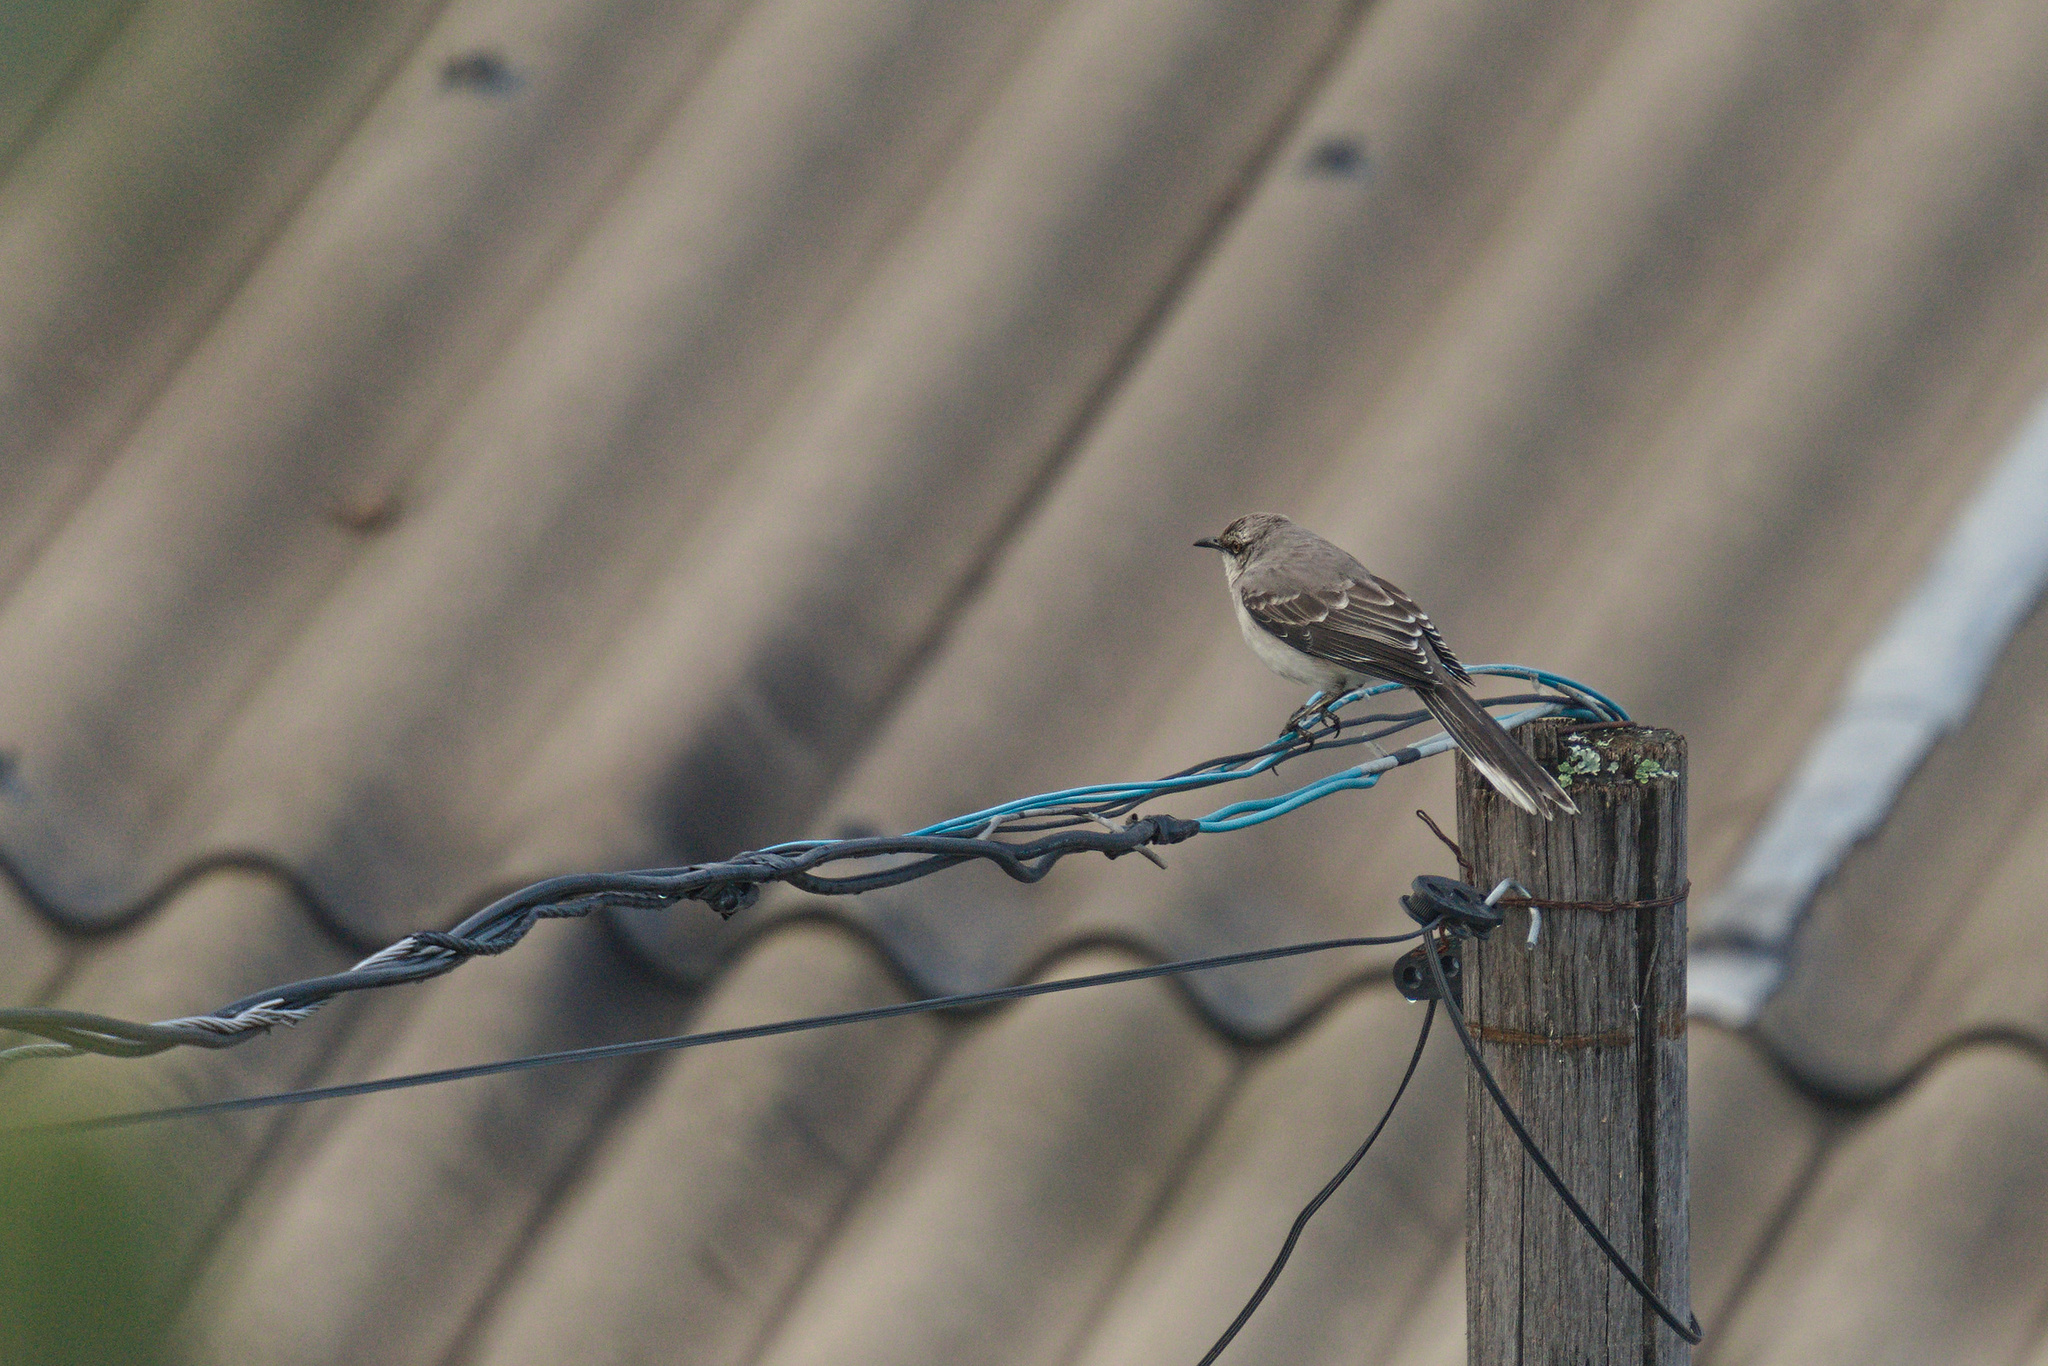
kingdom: Animalia
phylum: Chordata
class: Aves
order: Passeriformes
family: Mimidae
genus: Mimus
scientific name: Mimus gilvus
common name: Tropical mockingbird
